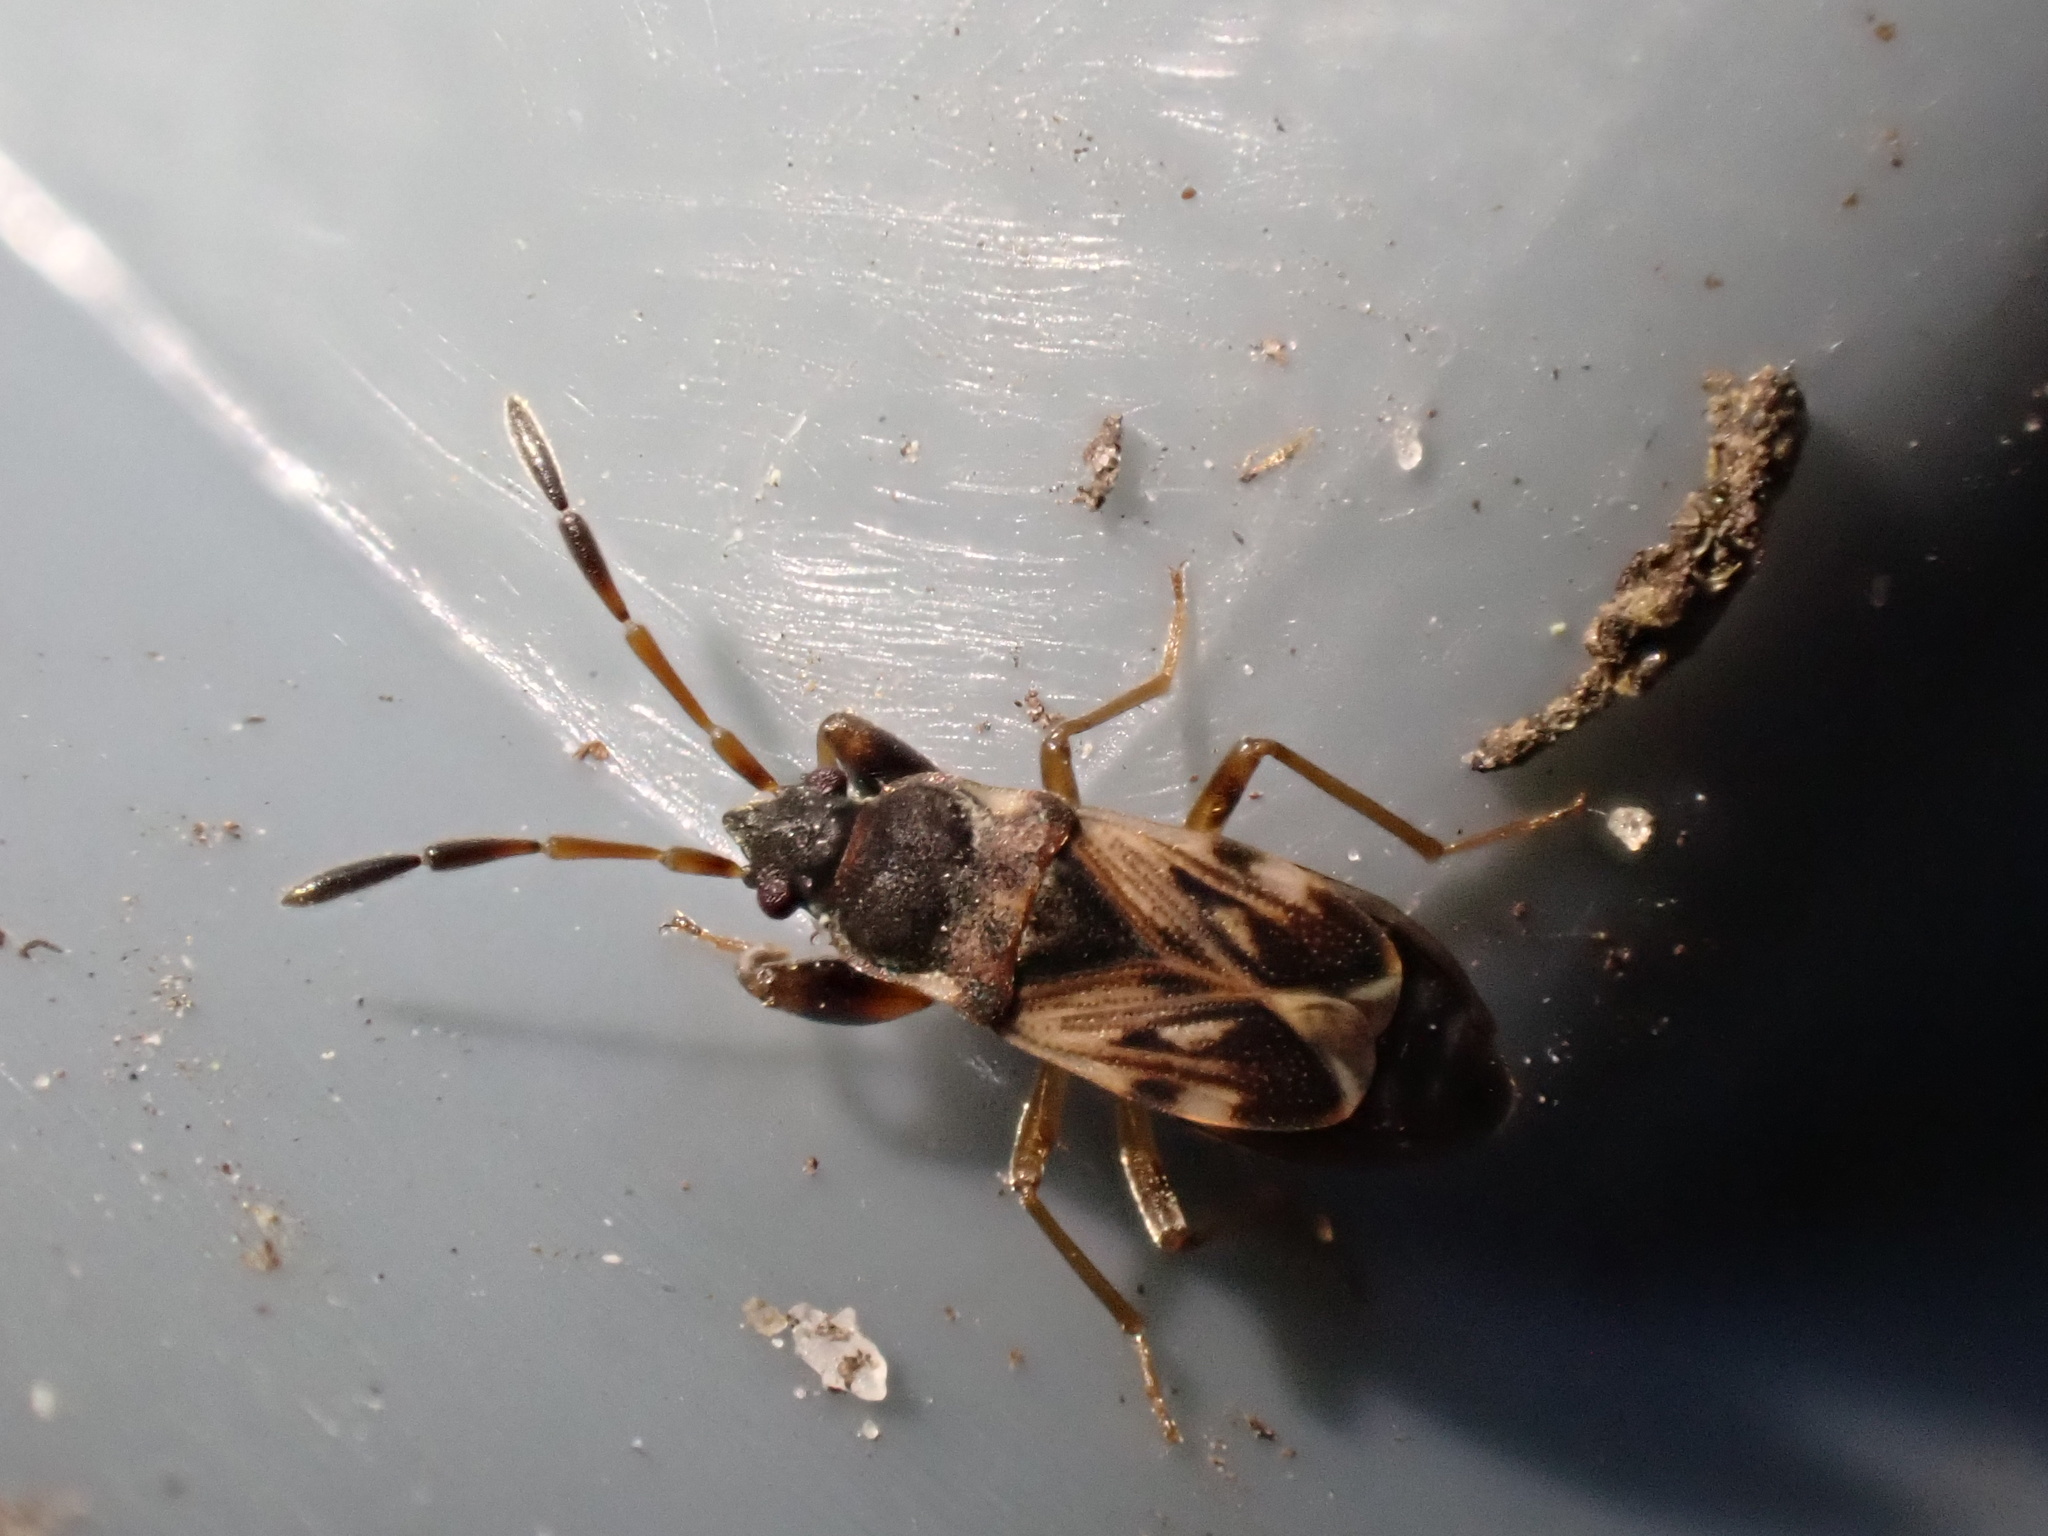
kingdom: Animalia
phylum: Arthropoda
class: Insecta
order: Hemiptera
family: Rhyparochromidae
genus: Scolopostethus
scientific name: Scolopostethus affinis
